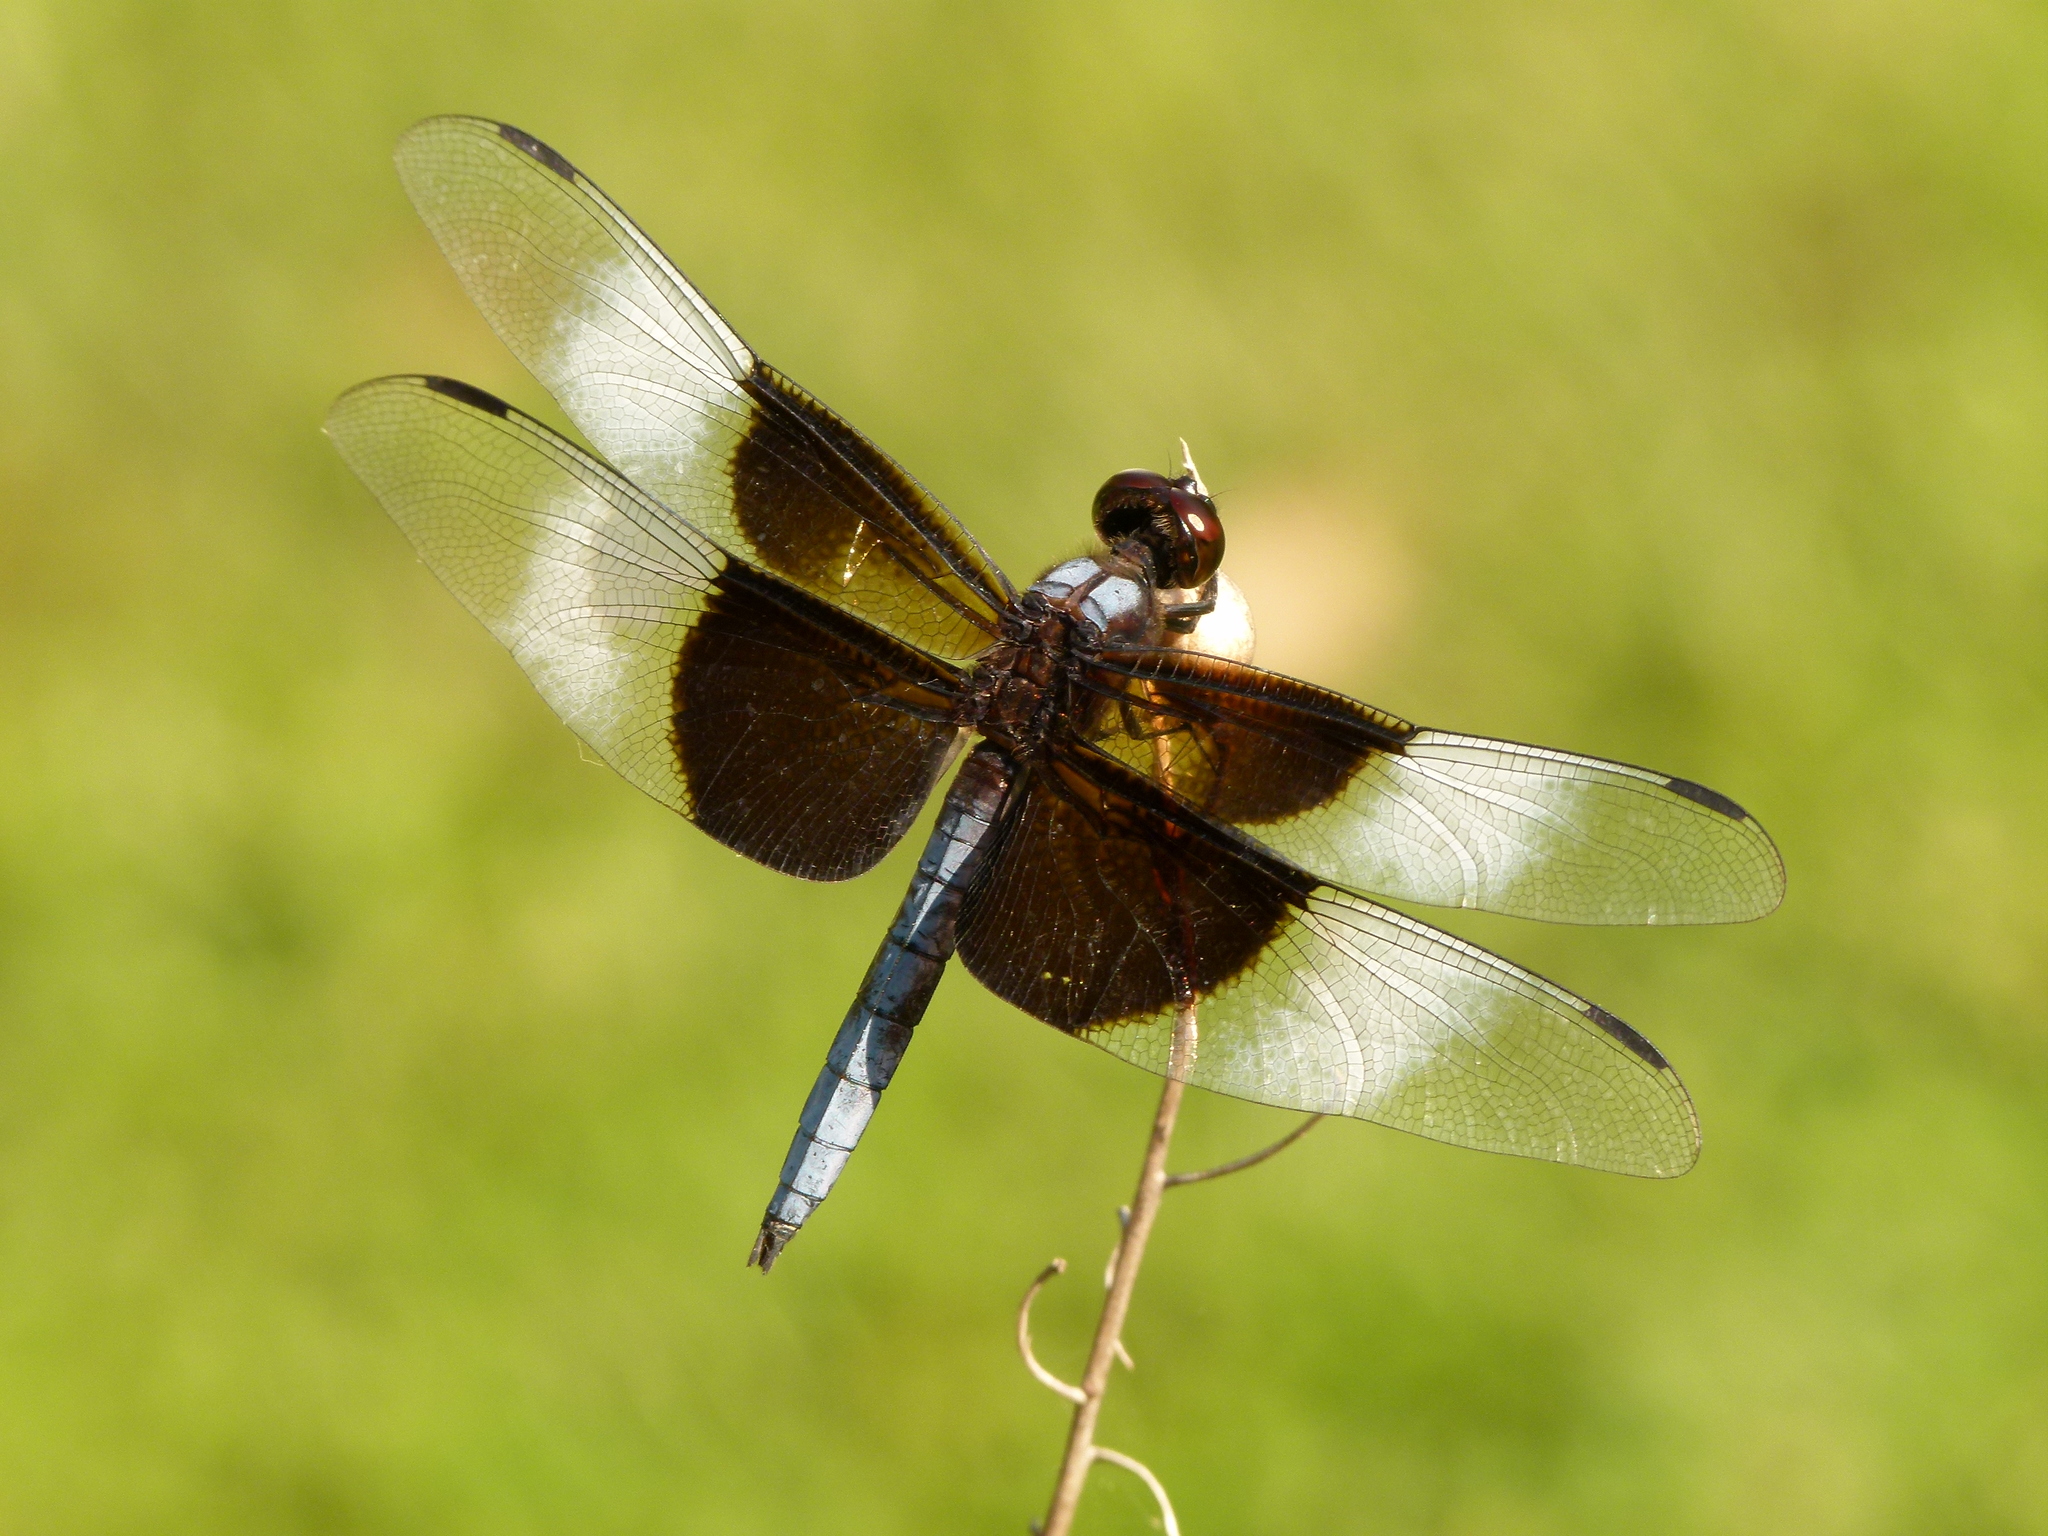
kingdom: Animalia
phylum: Arthropoda
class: Insecta
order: Odonata
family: Libellulidae
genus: Libellula
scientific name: Libellula luctuosa
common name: Widow skimmer
